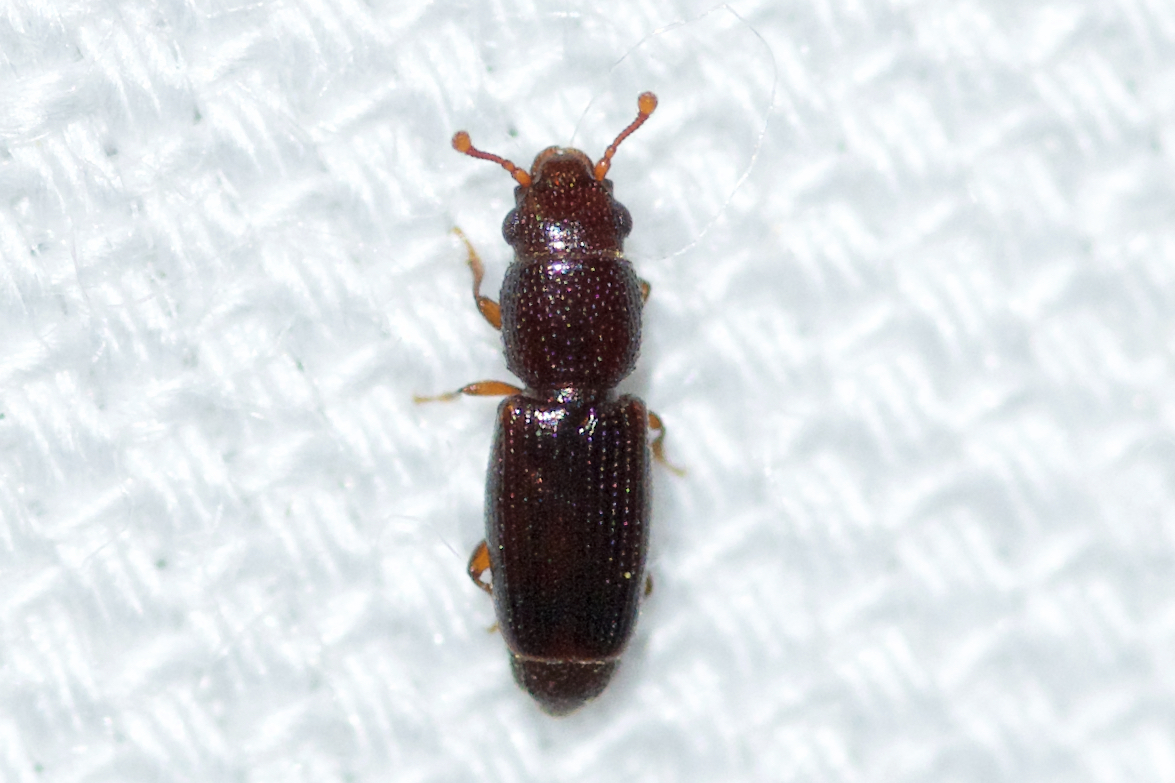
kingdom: Animalia
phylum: Arthropoda
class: Insecta
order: Coleoptera
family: Monotomidae
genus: Bactridium
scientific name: Bactridium striolatum
